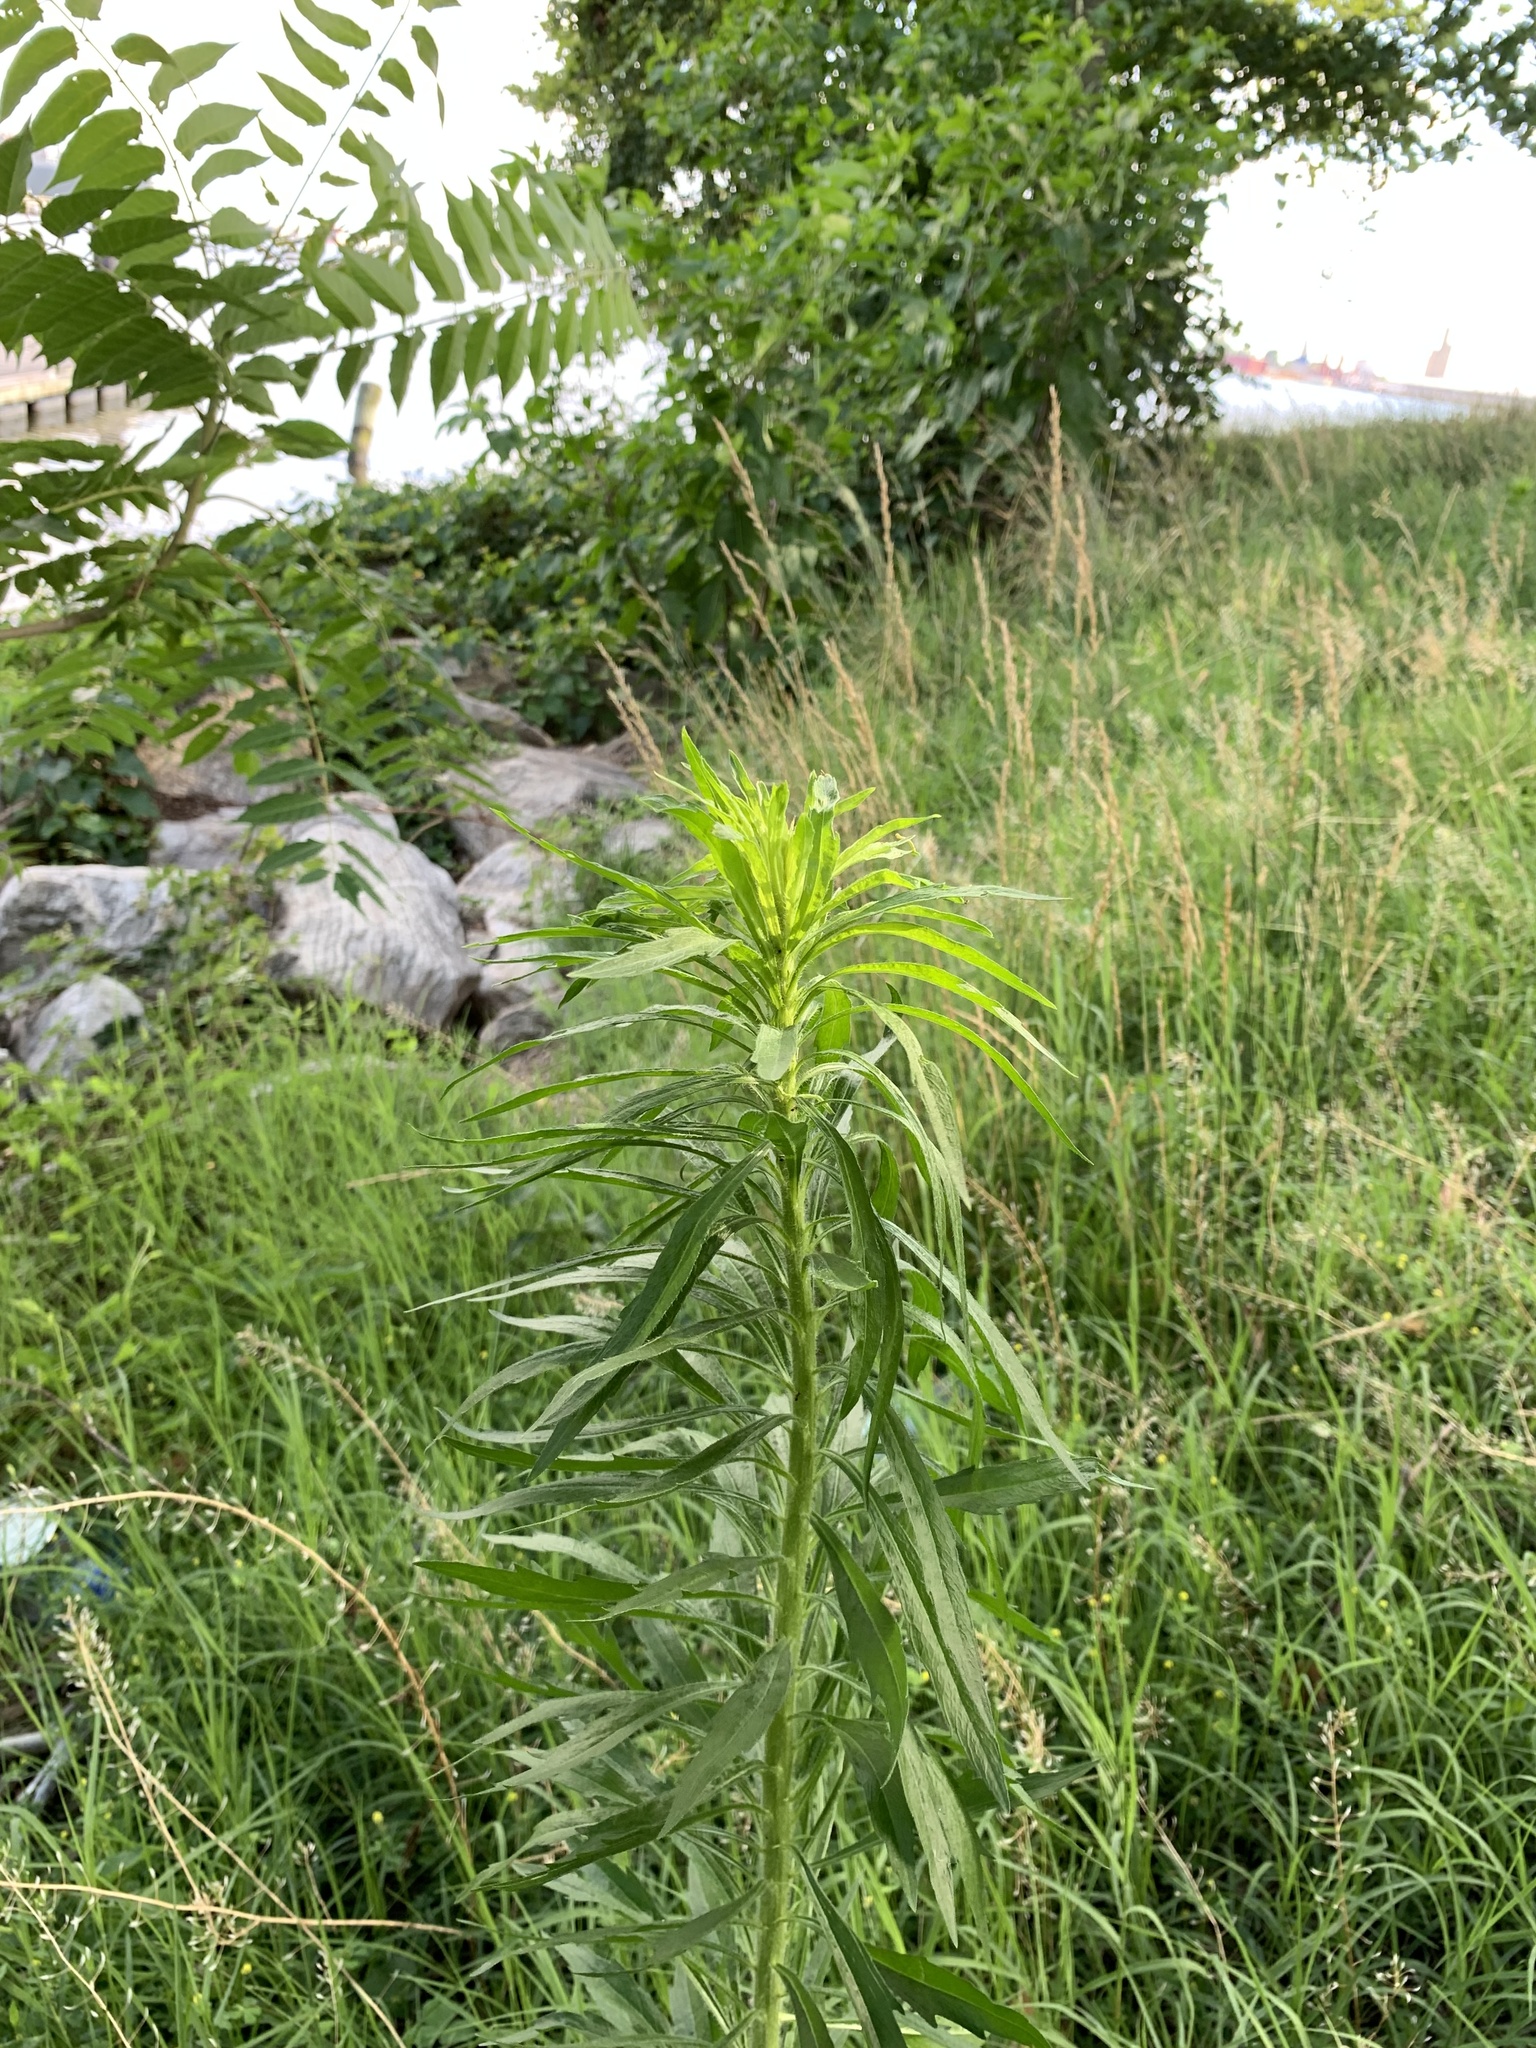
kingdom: Plantae
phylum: Tracheophyta
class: Magnoliopsida
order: Asterales
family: Asteraceae
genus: Erigeron
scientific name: Erigeron canadensis
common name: Canadian fleabane
